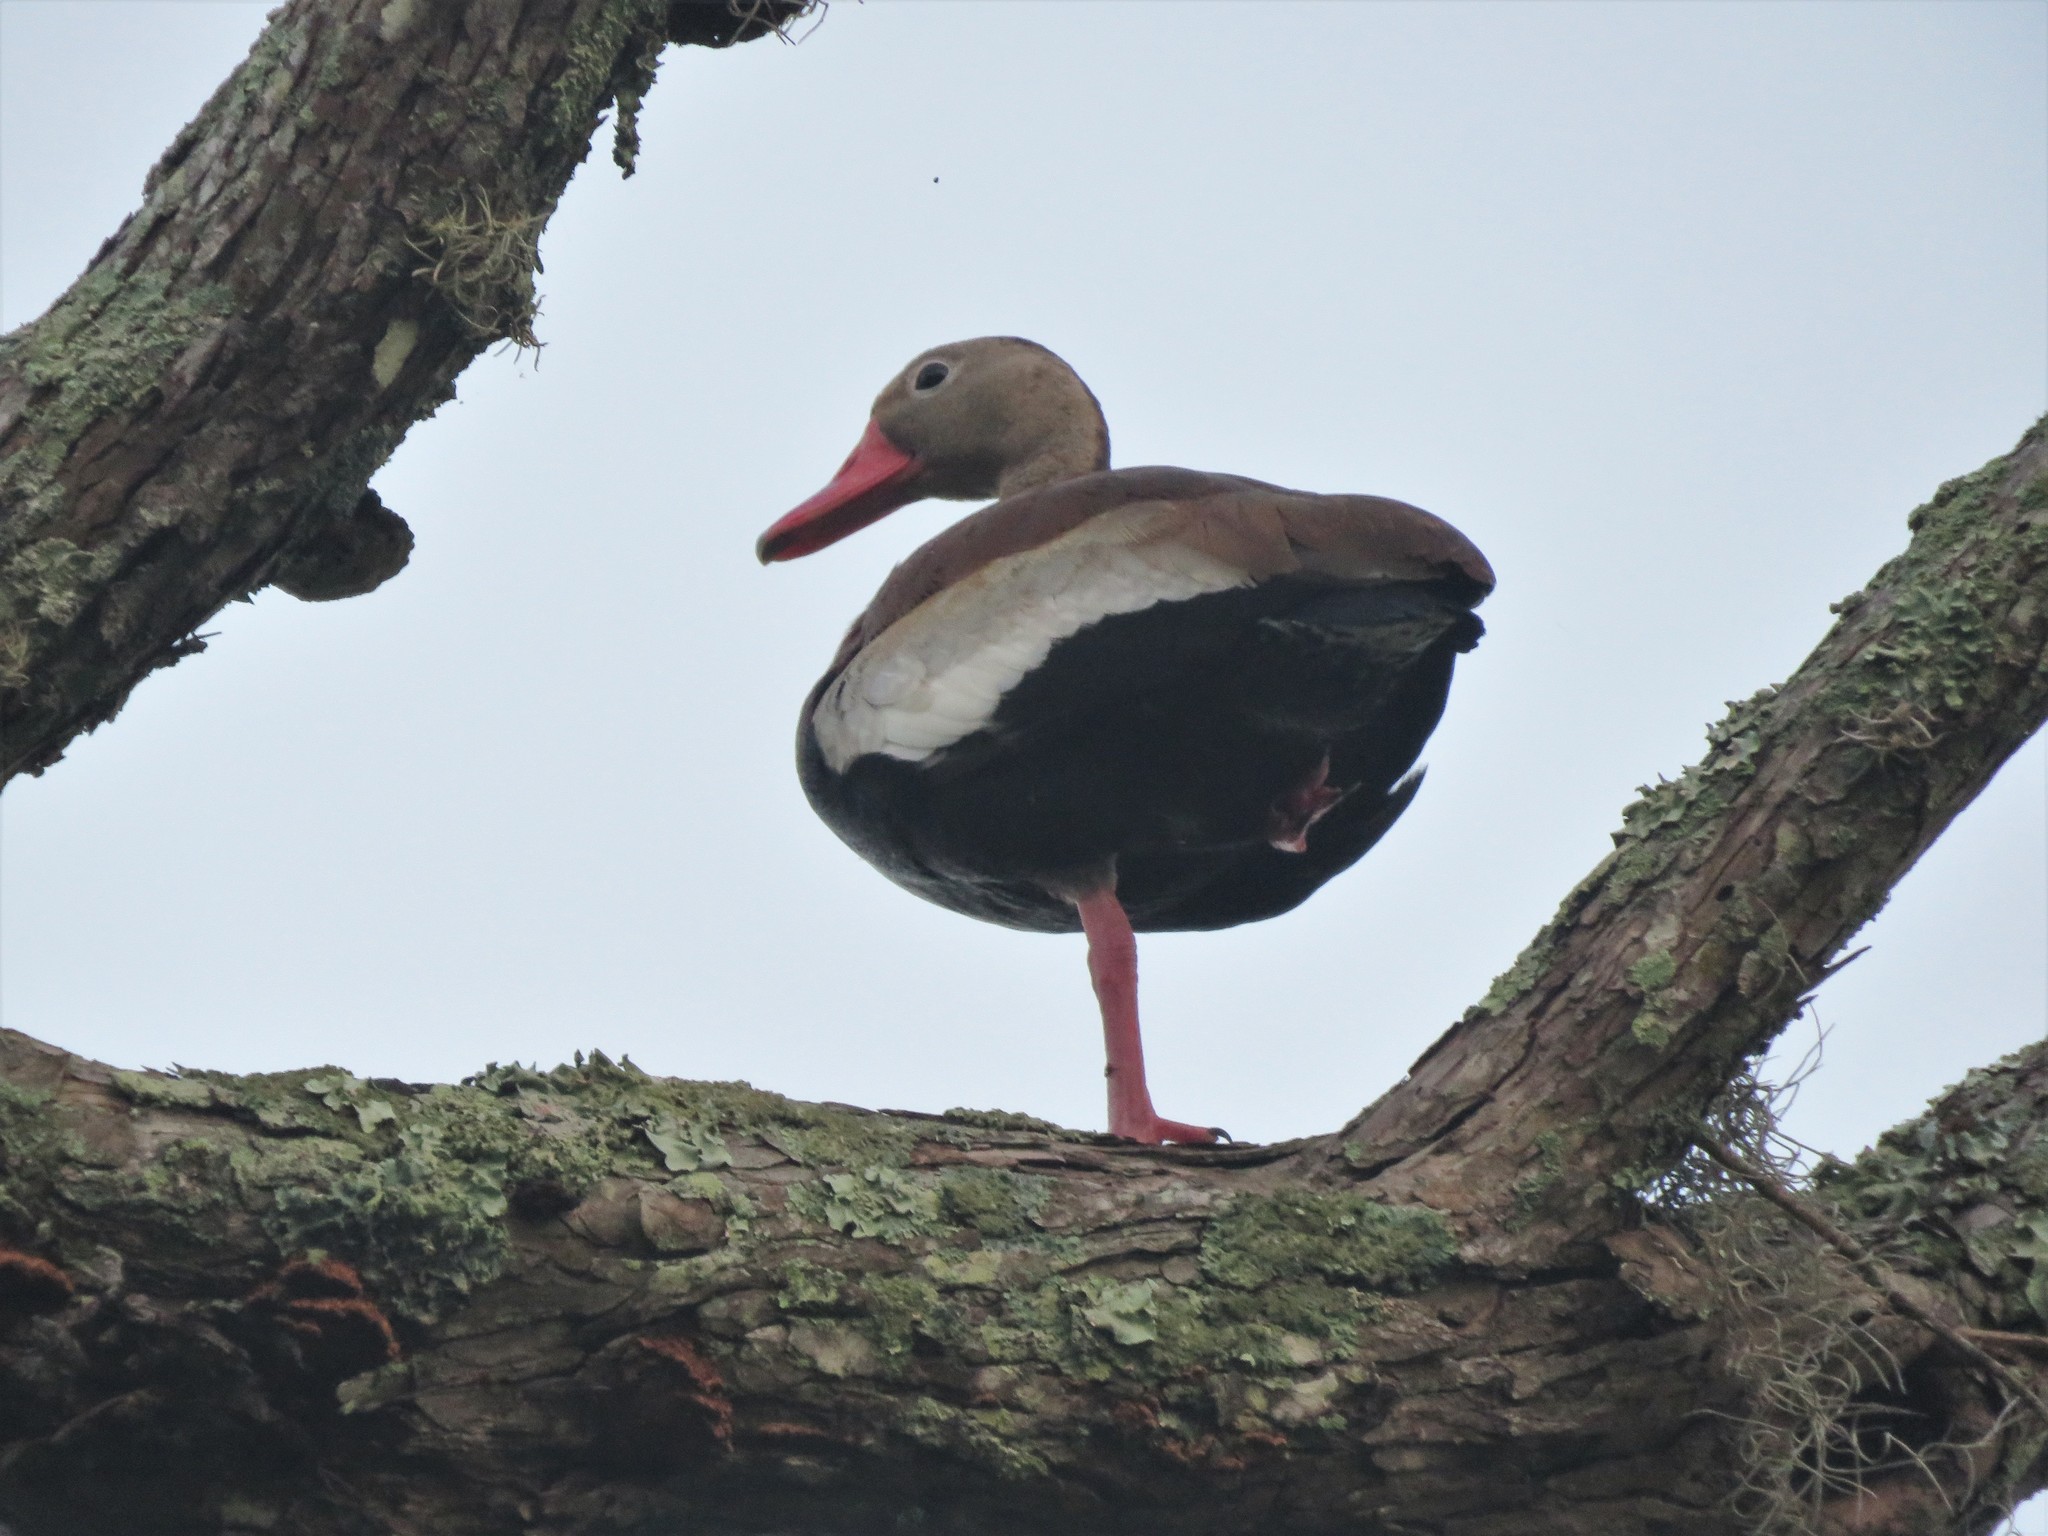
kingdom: Animalia
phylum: Chordata
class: Aves
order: Anseriformes
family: Anatidae
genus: Dendrocygna
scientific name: Dendrocygna autumnalis
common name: Black-bellied whistling duck
